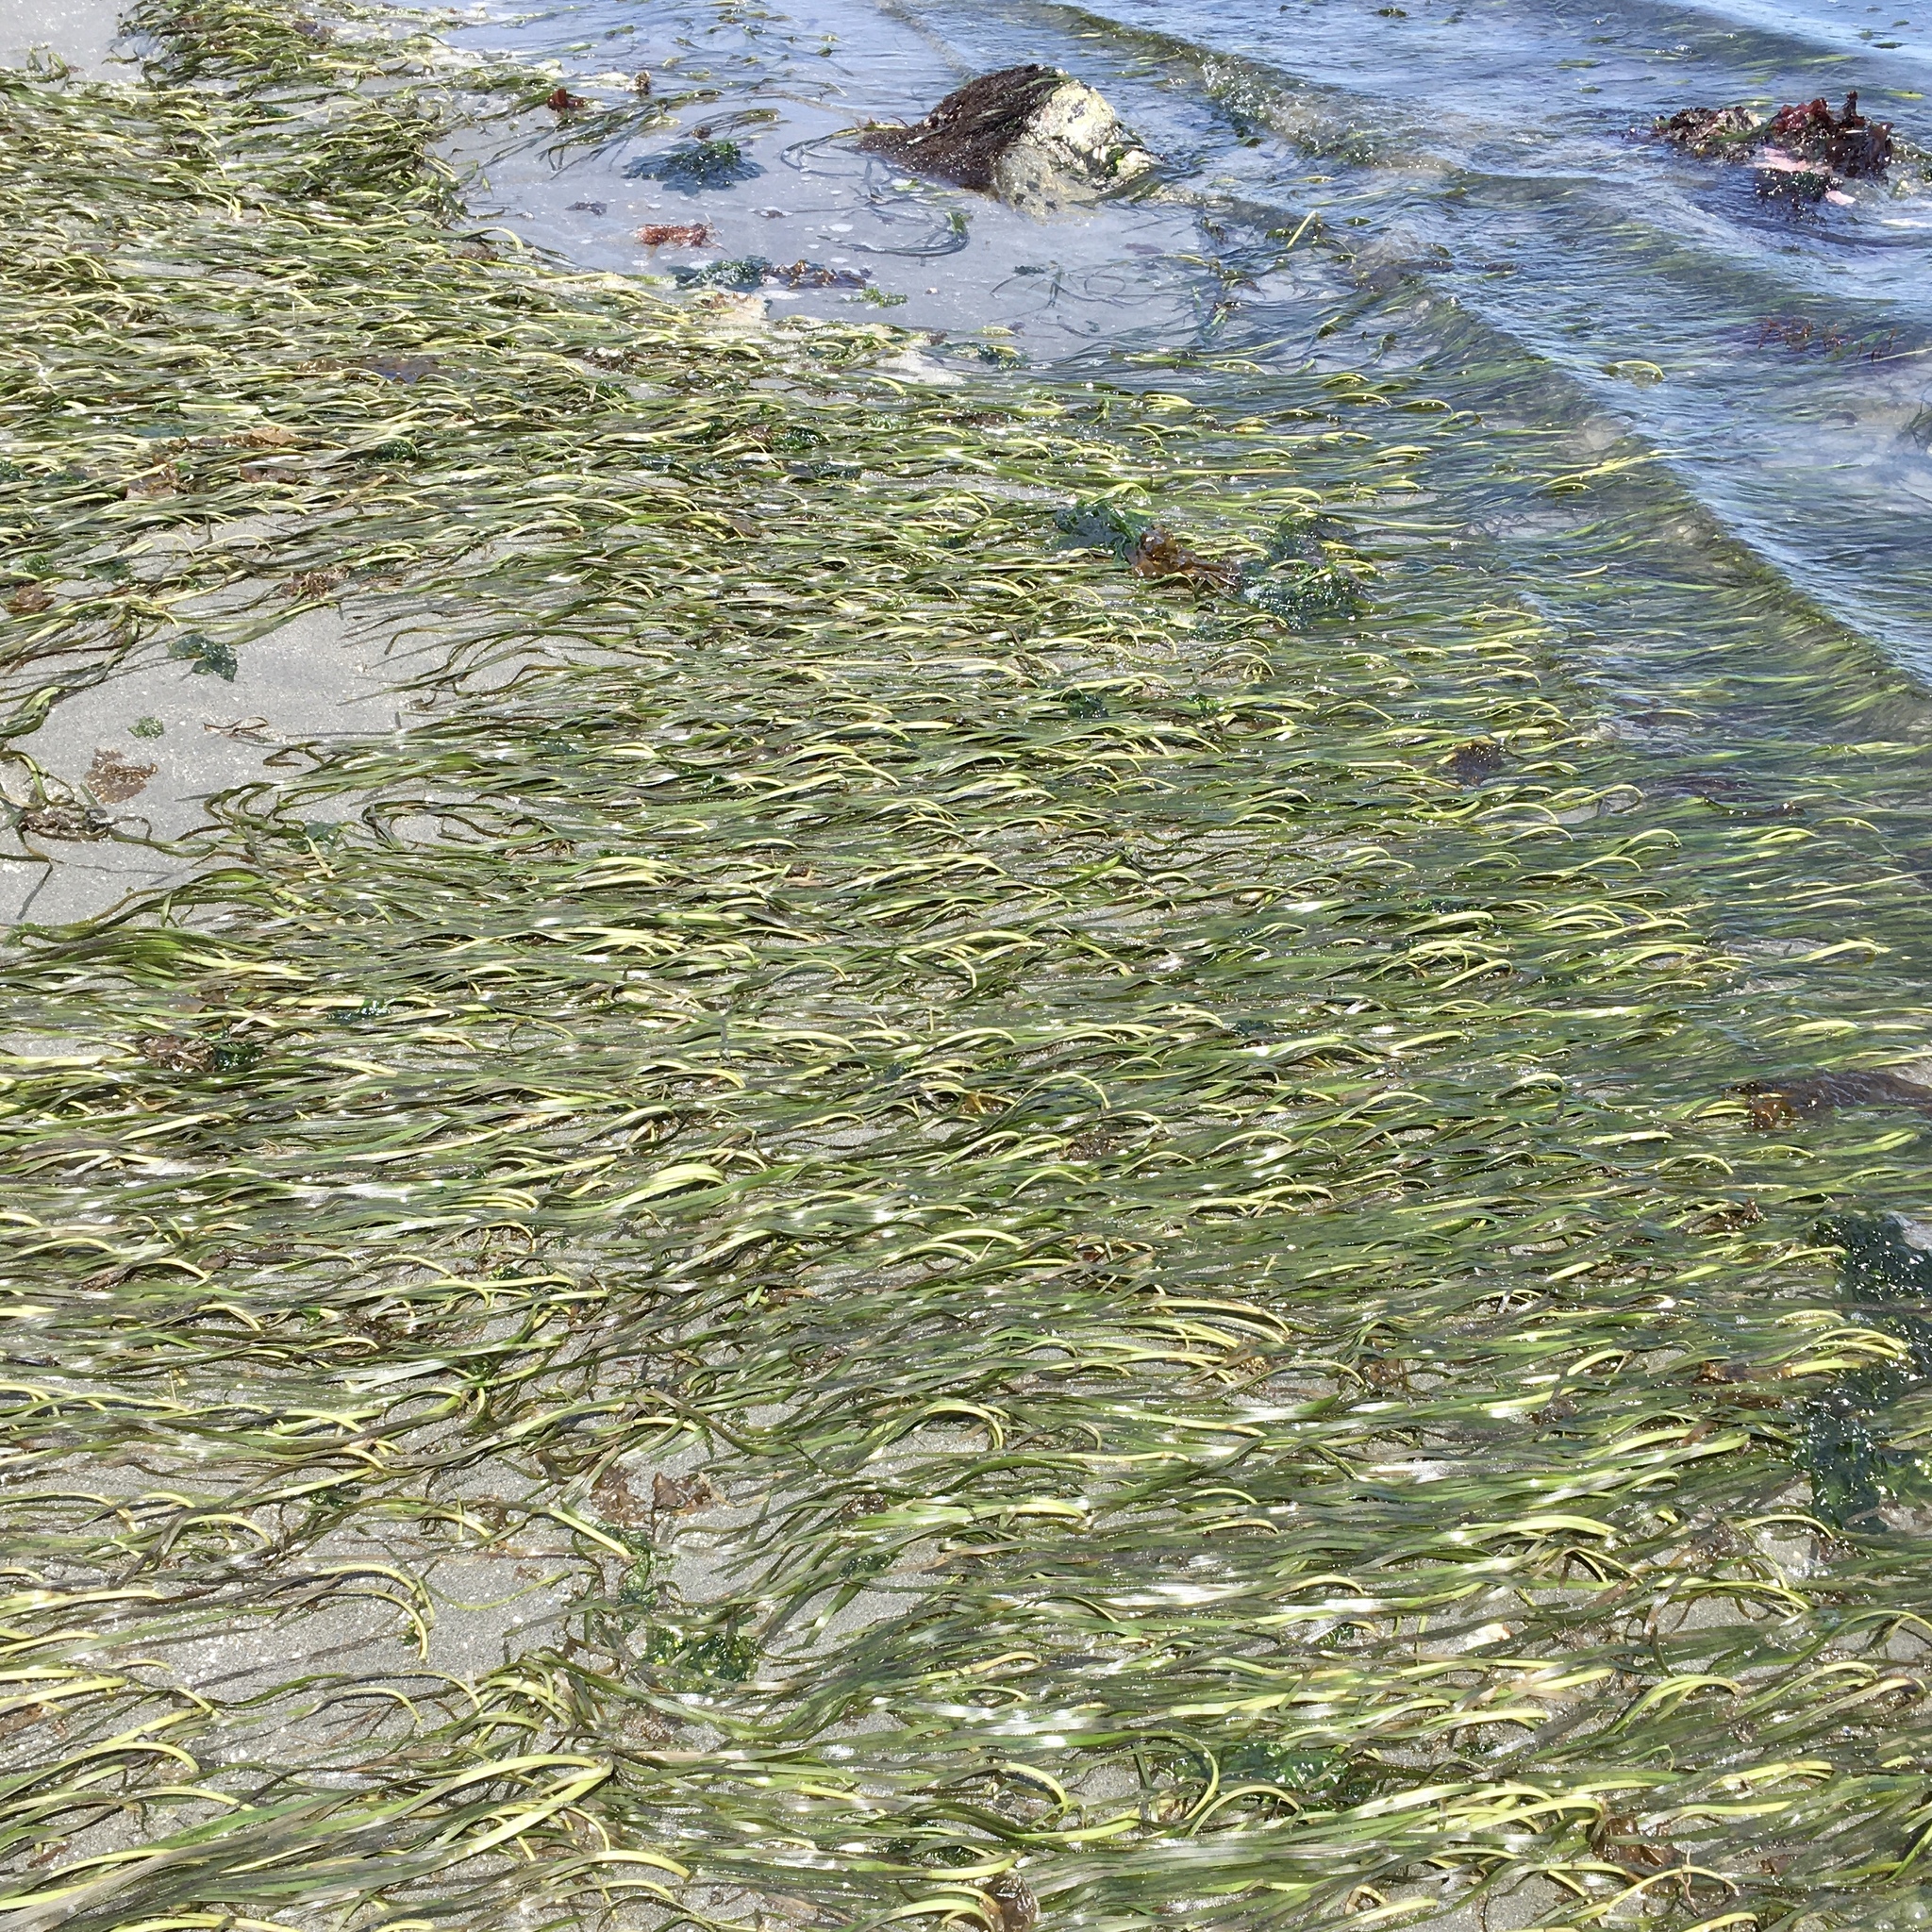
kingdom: Plantae
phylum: Tracheophyta
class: Liliopsida
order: Alismatales
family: Zosteraceae
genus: Zostera
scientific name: Zostera marina
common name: Eelgrass
